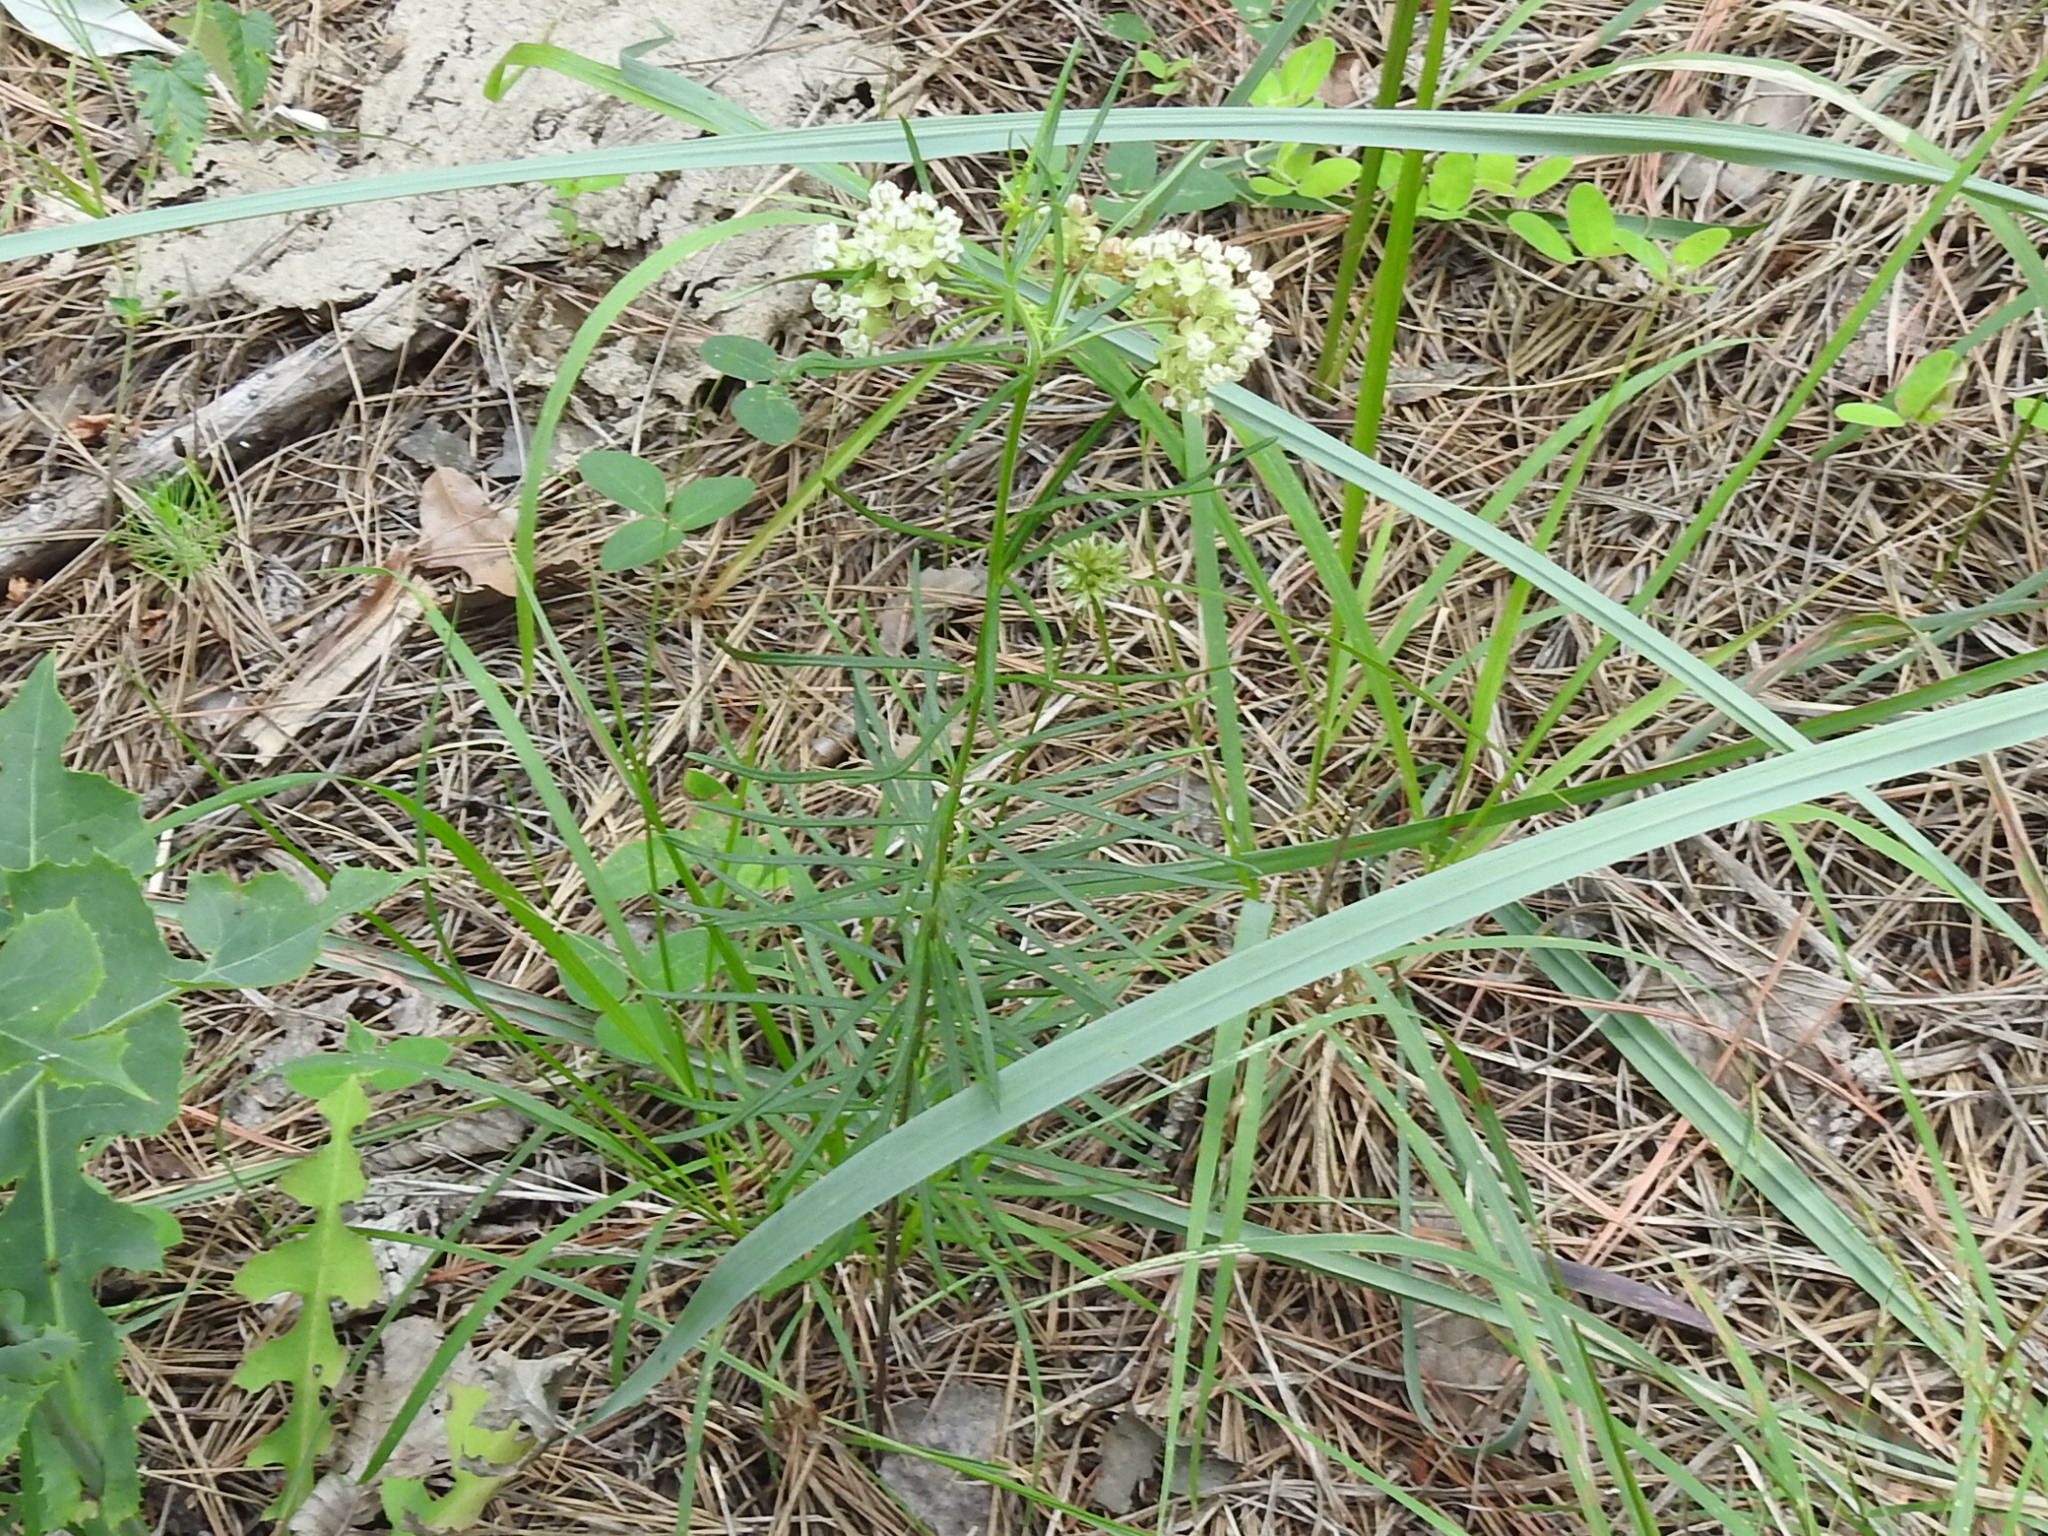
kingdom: Plantae
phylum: Tracheophyta
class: Magnoliopsida
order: Gentianales
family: Apocynaceae
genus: Asclepias
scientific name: Asclepias verticillata
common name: Eastern whorled milkweed
